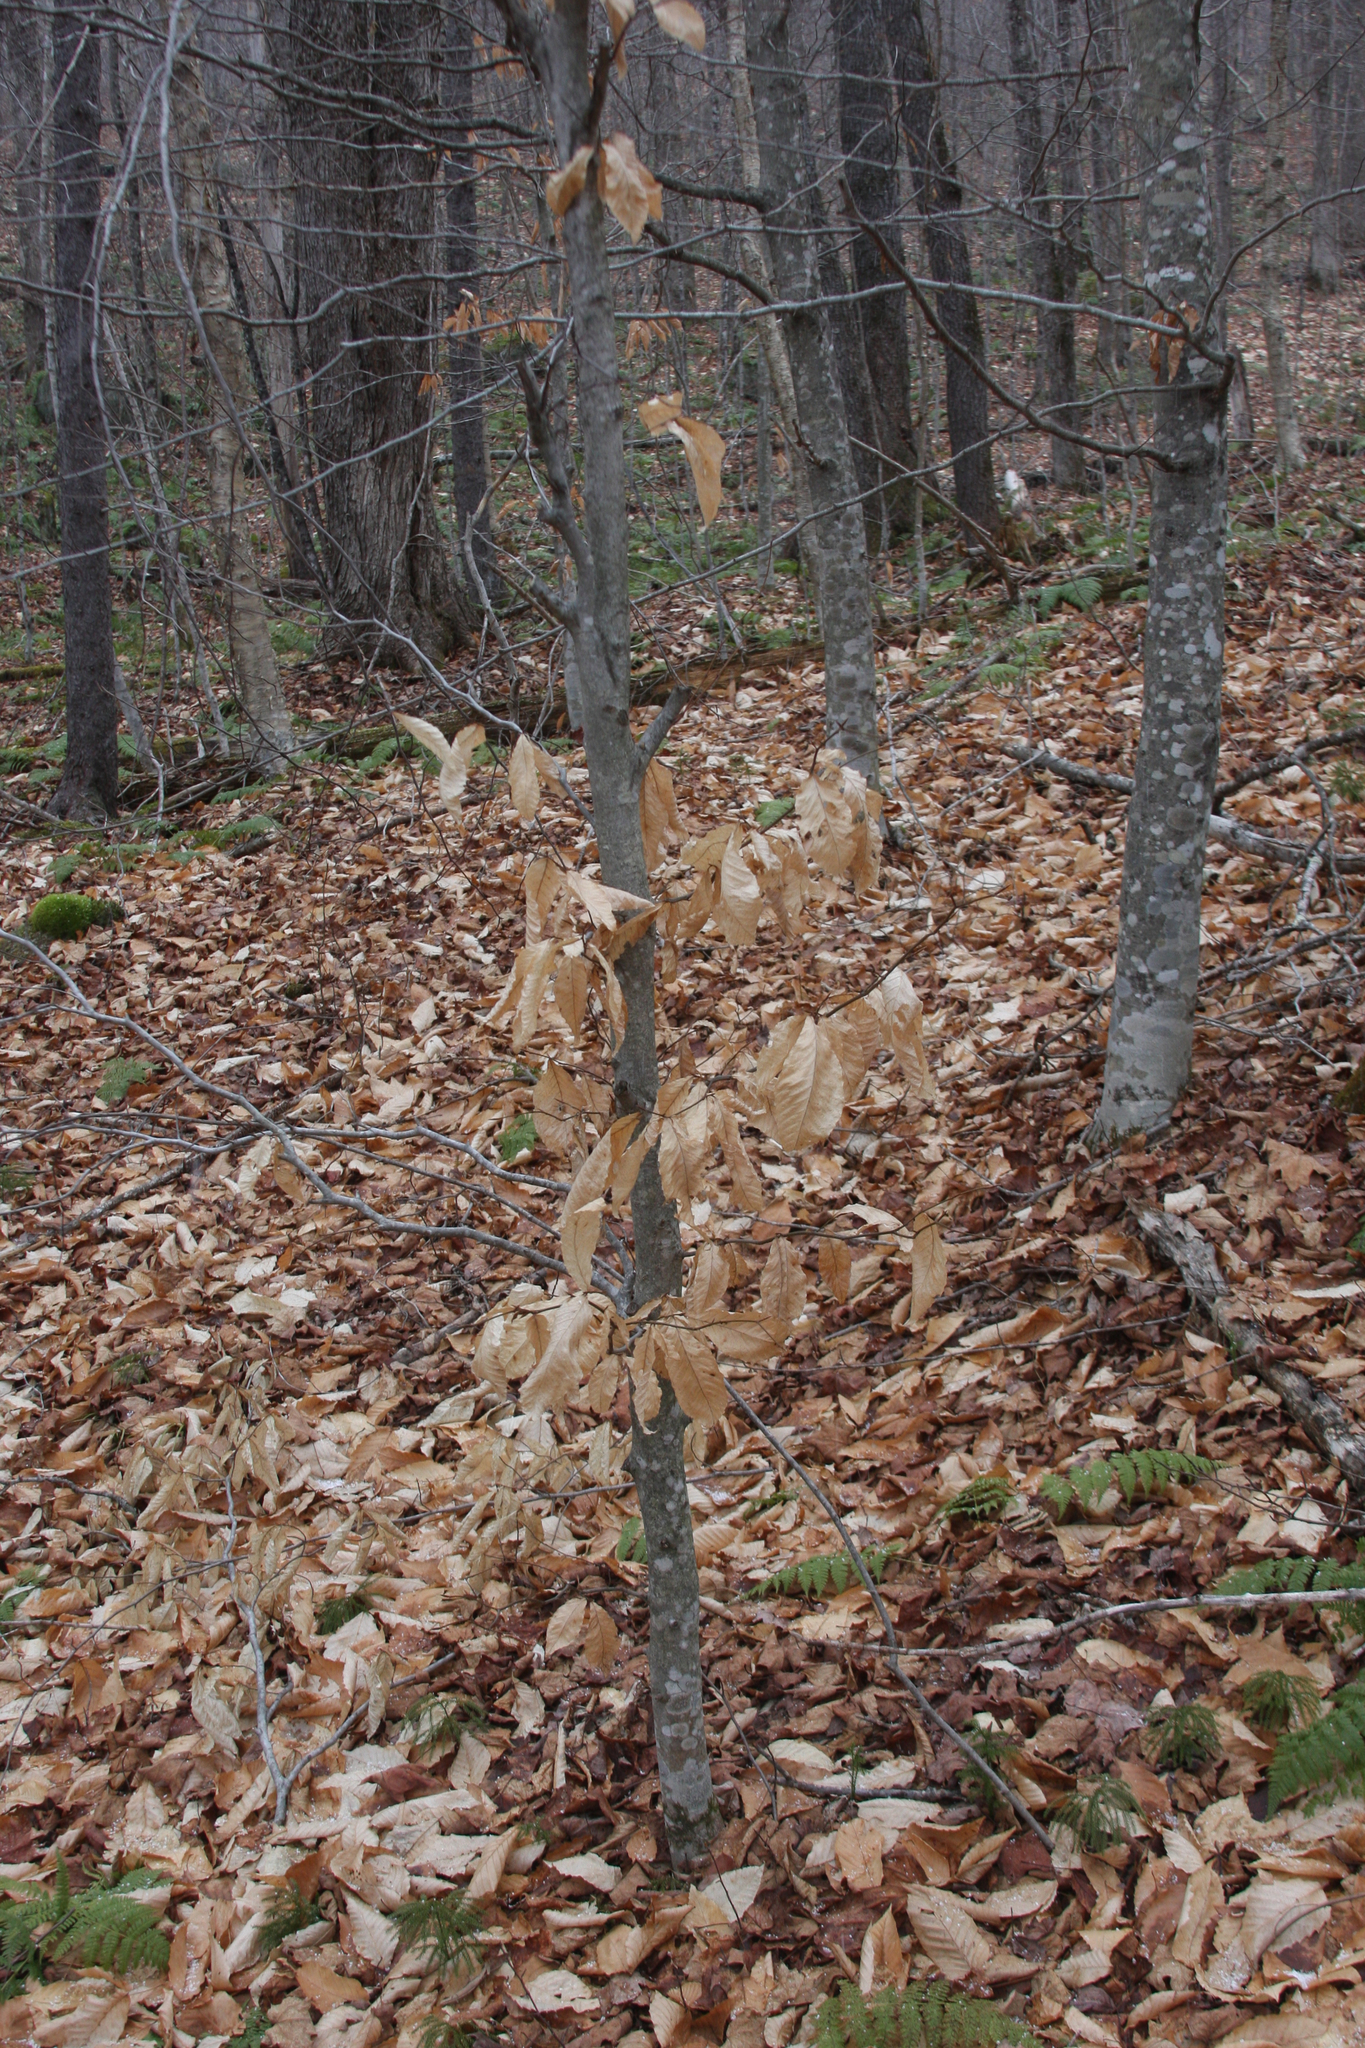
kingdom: Plantae
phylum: Tracheophyta
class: Magnoliopsida
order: Fagales
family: Fagaceae
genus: Fagus
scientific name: Fagus grandifolia
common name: American beech
